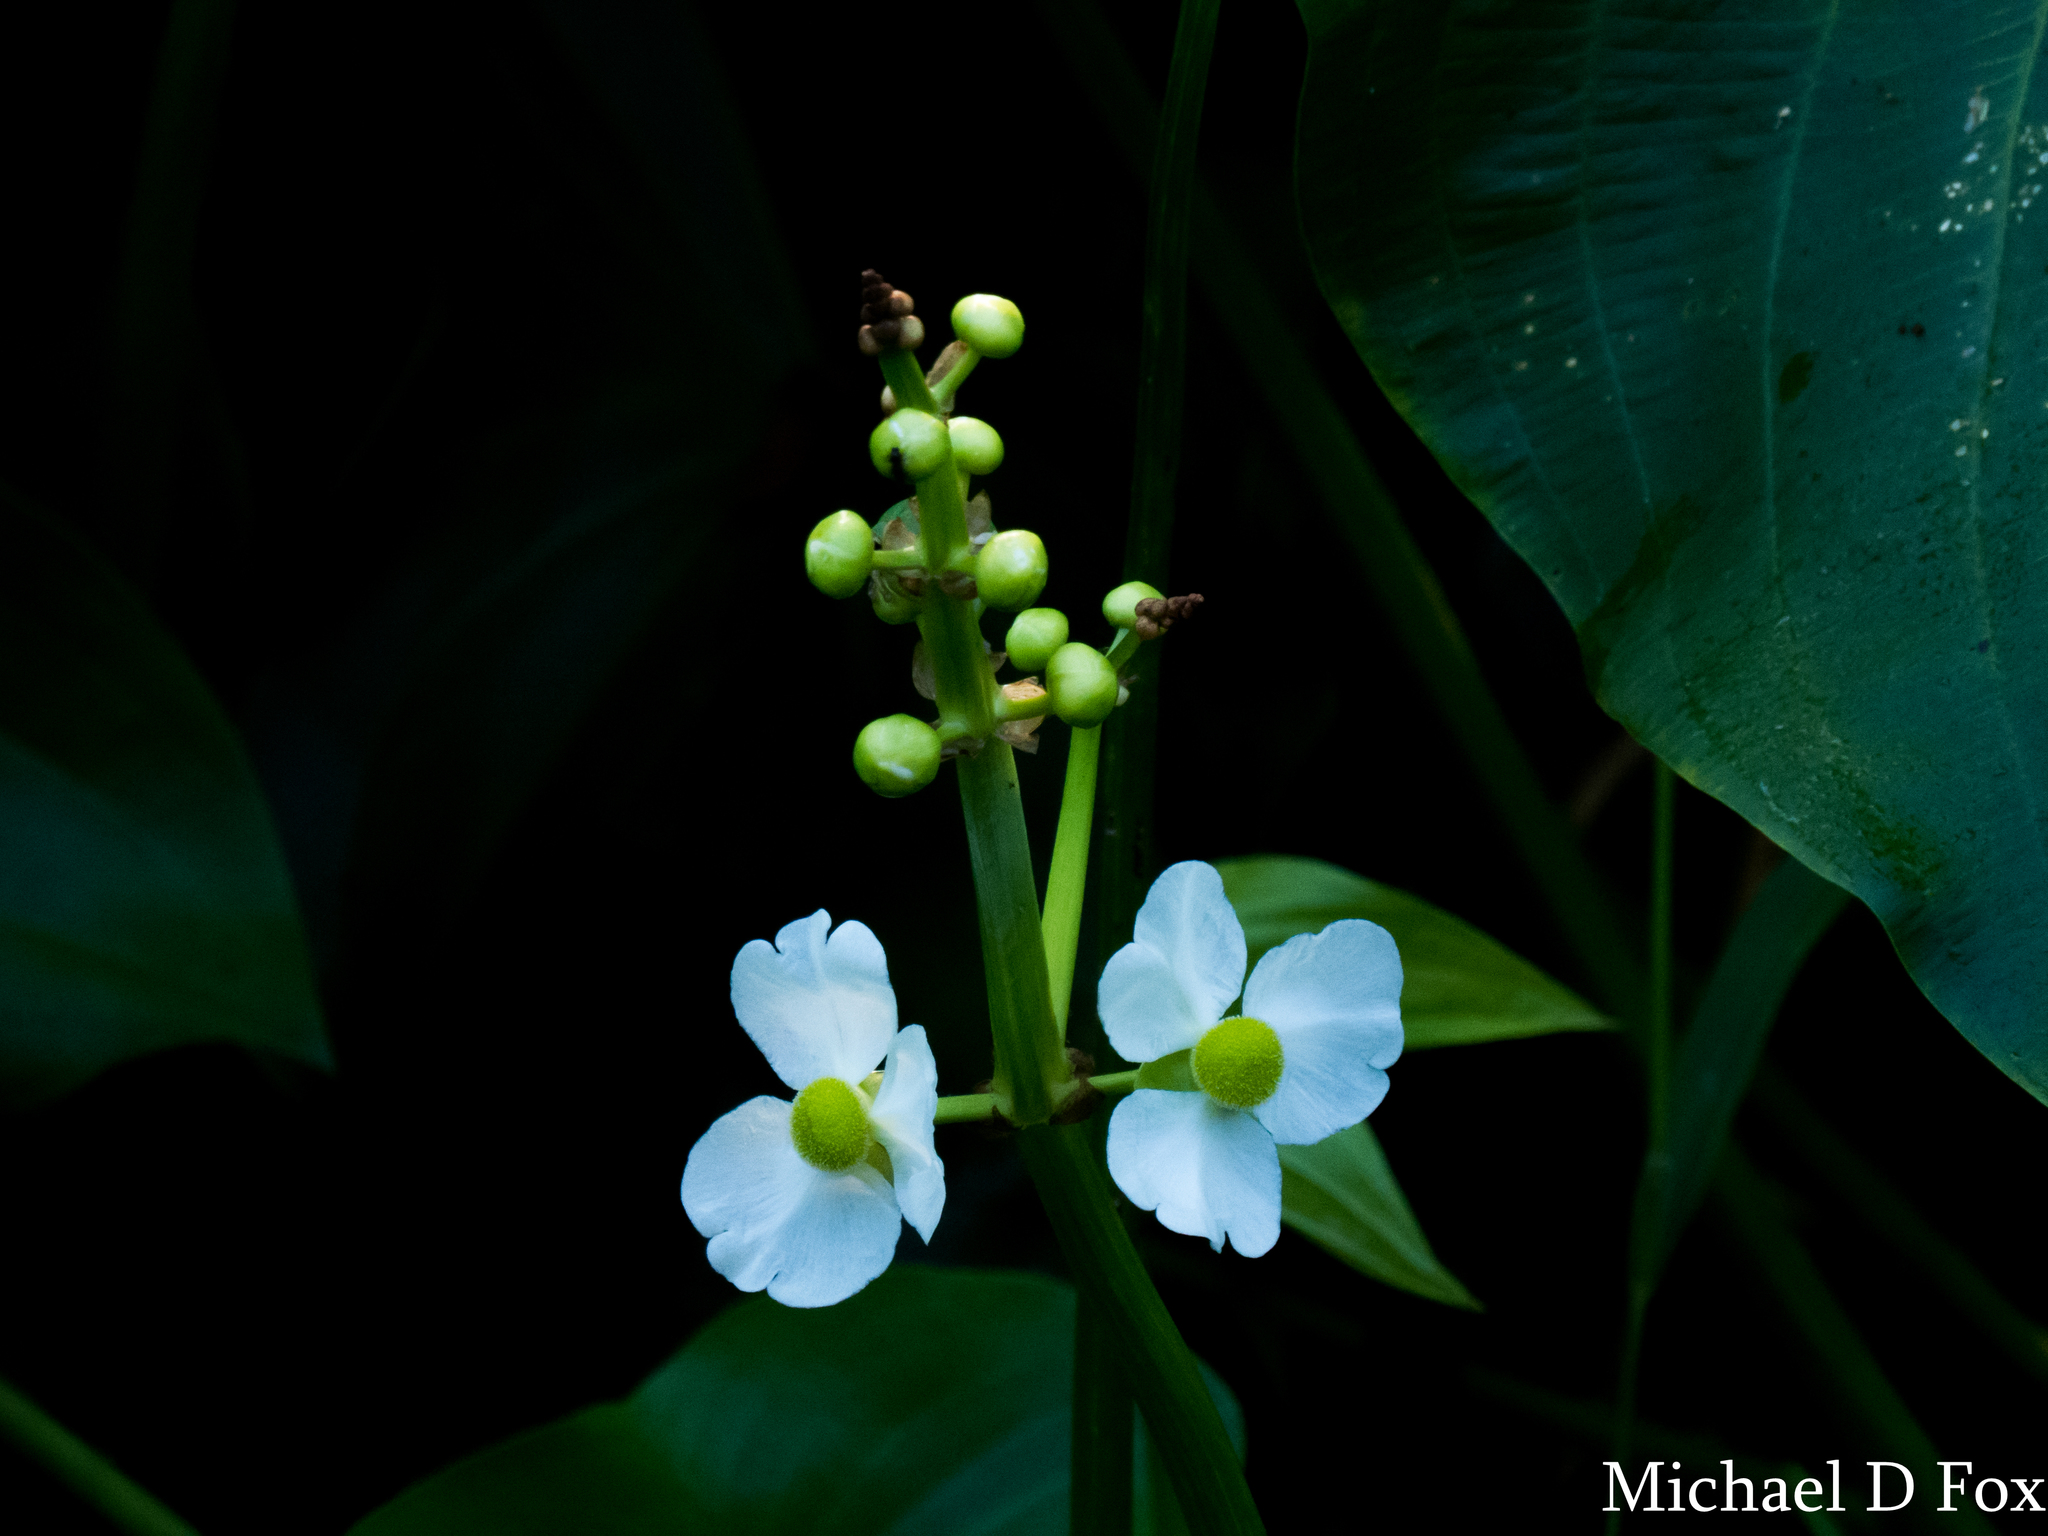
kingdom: Plantae
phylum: Tracheophyta
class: Liliopsida
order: Alismatales
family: Alismataceae
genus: Sagittaria
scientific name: Sagittaria latifolia
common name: Duck-potato
